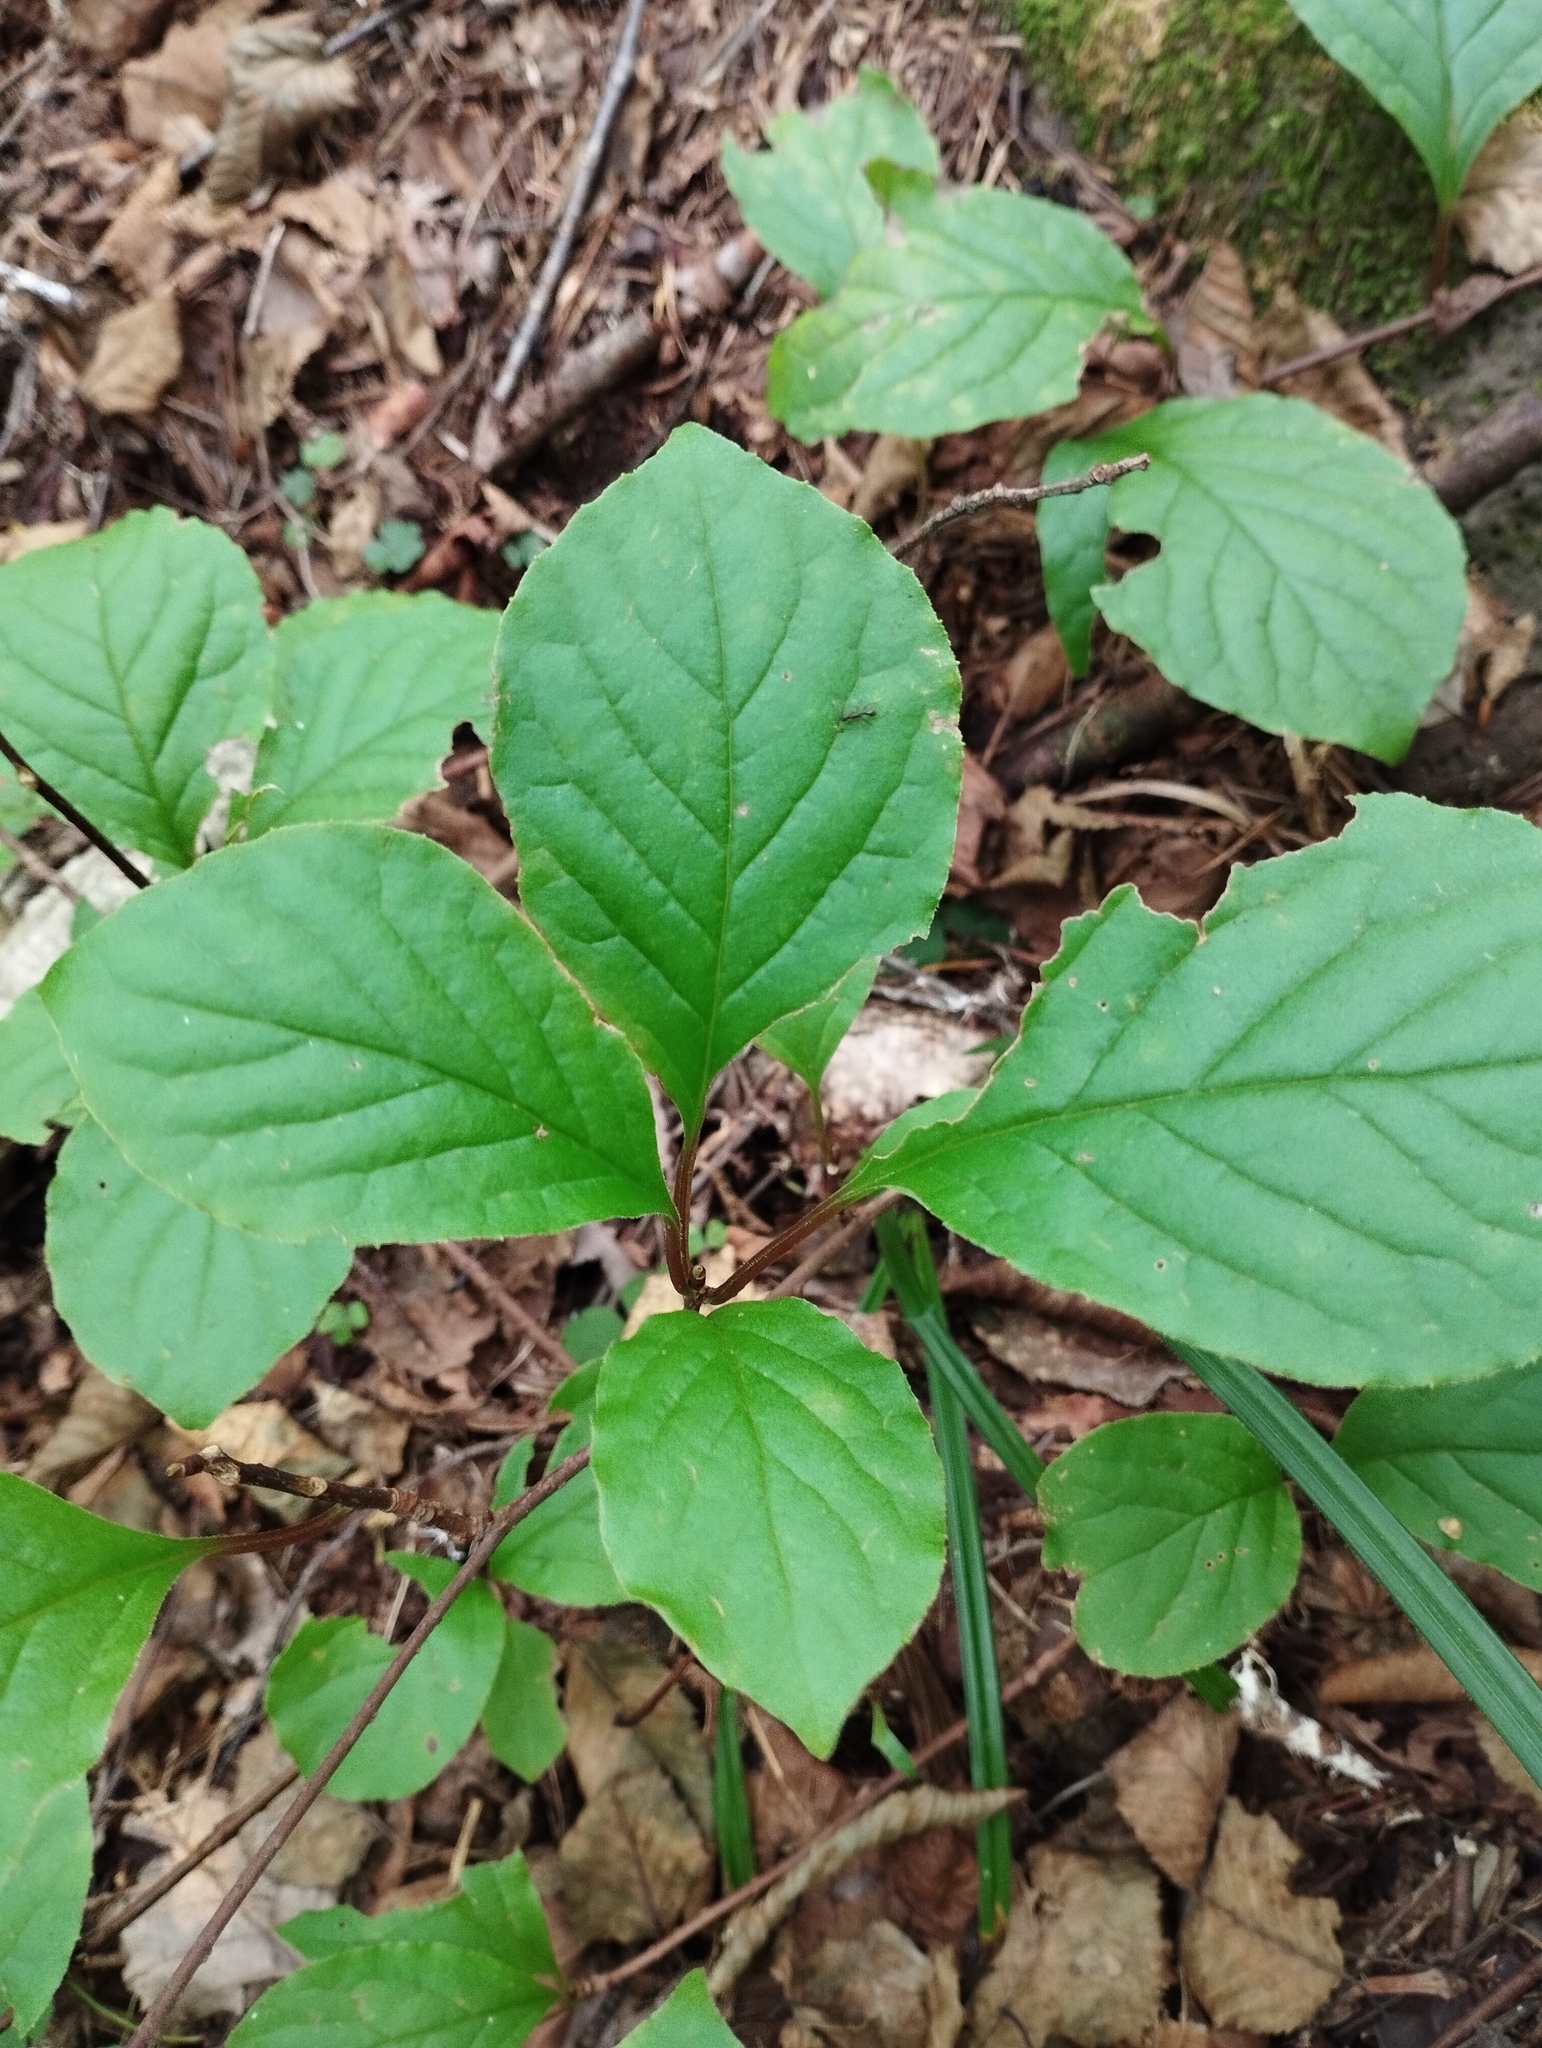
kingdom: Plantae
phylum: Tracheophyta
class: Magnoliopsida
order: Austrobaileyales
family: Schisandraceae
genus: Schisandra
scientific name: Schisandra chinensis
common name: Magnolia-vine
